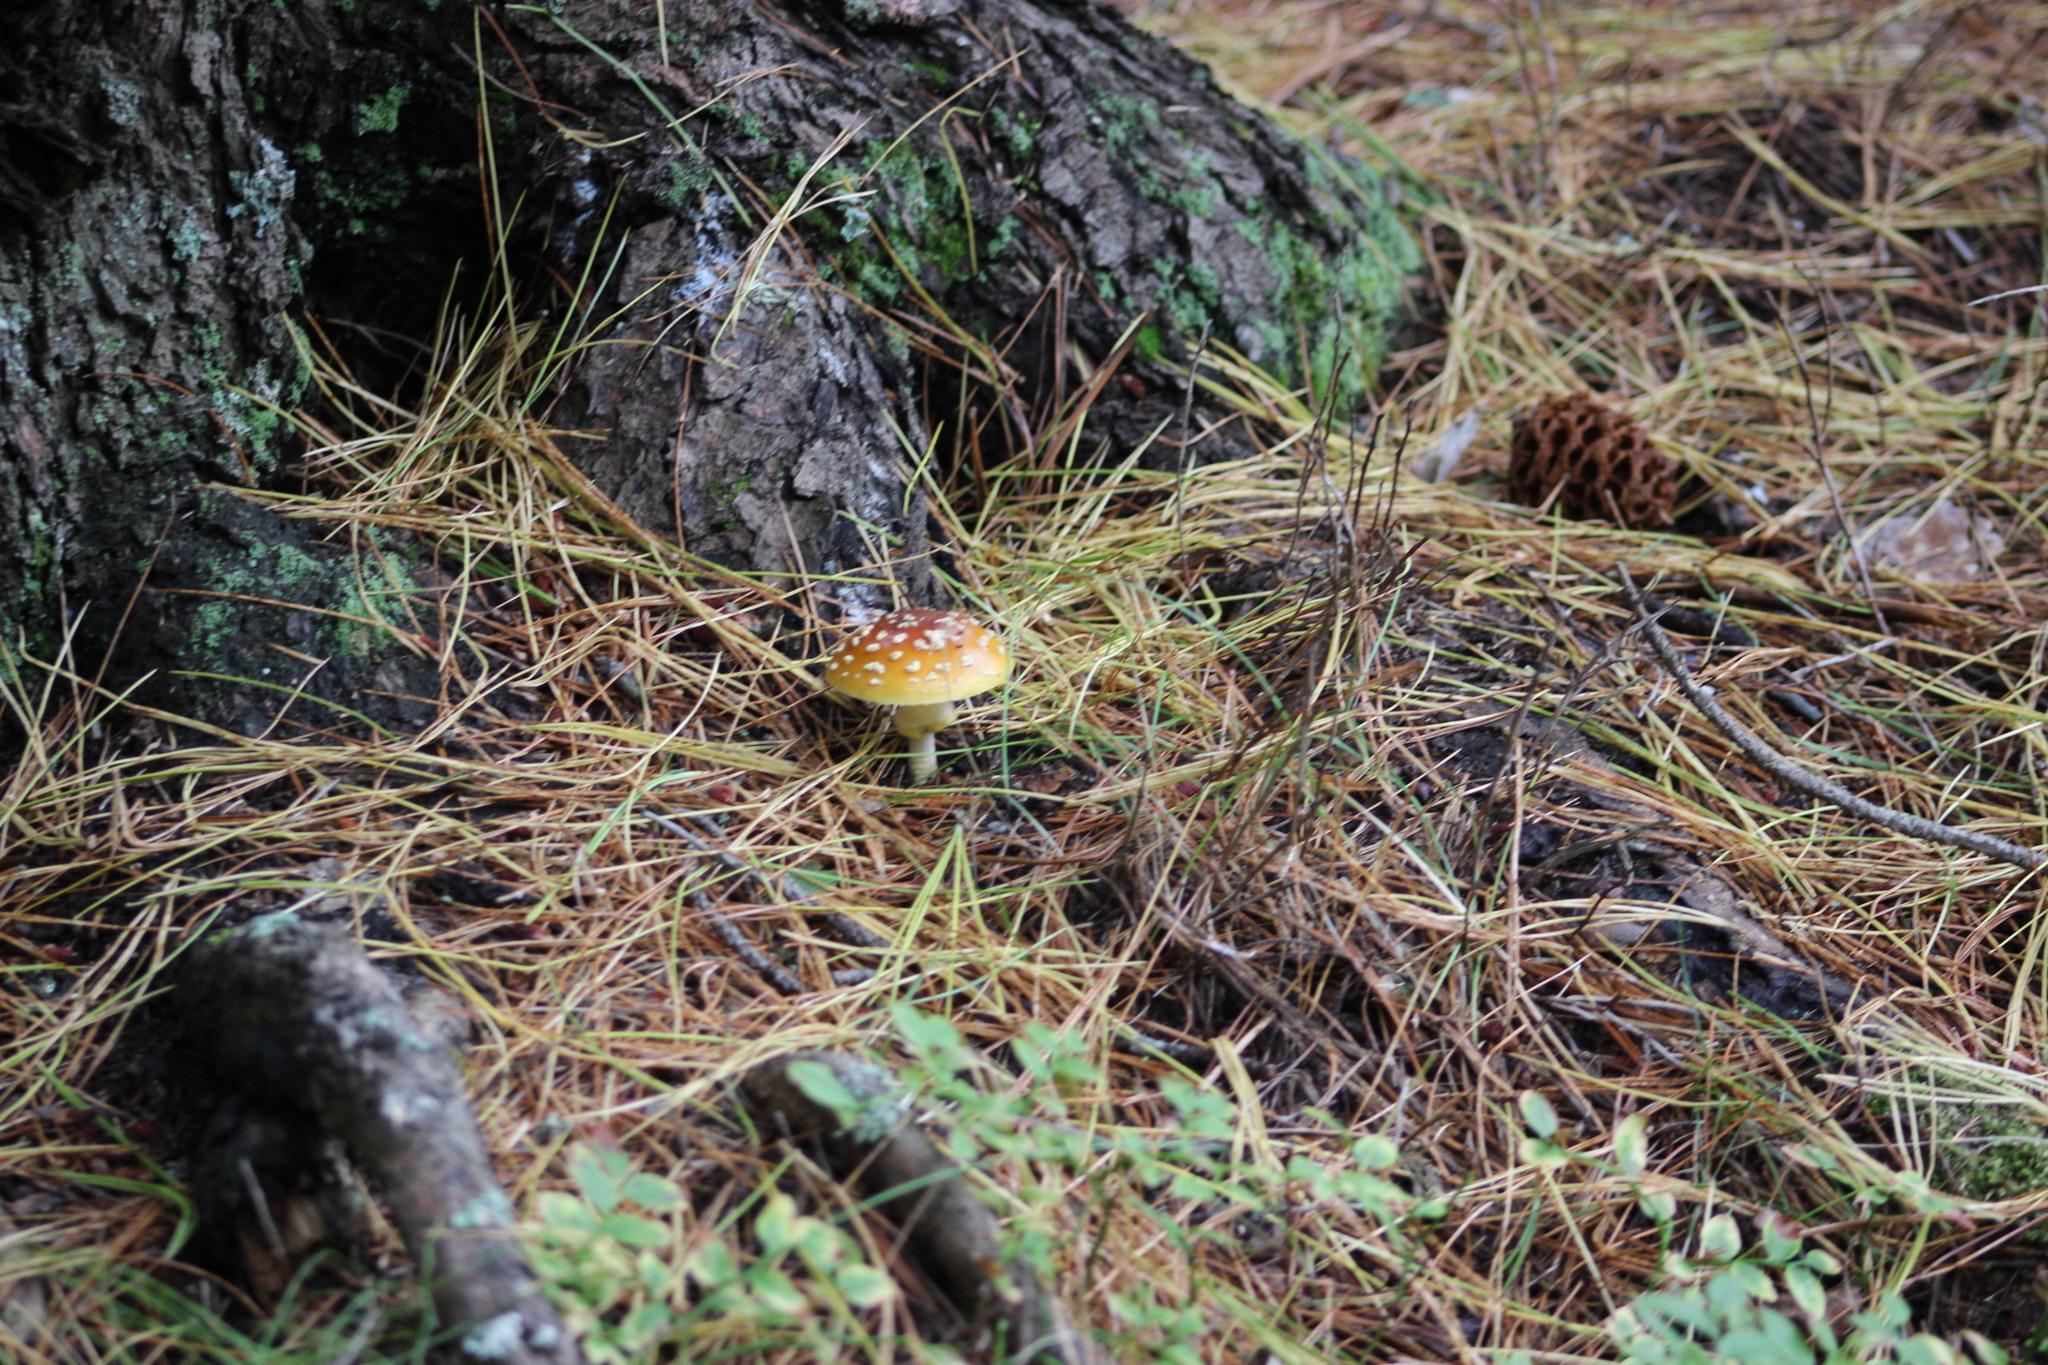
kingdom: Fungi
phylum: Basidiomycota
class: Agaricomycetes
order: Agaricales
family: Amanitaceae
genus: Amanita
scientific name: Amanita muscaria
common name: Fly agaric
